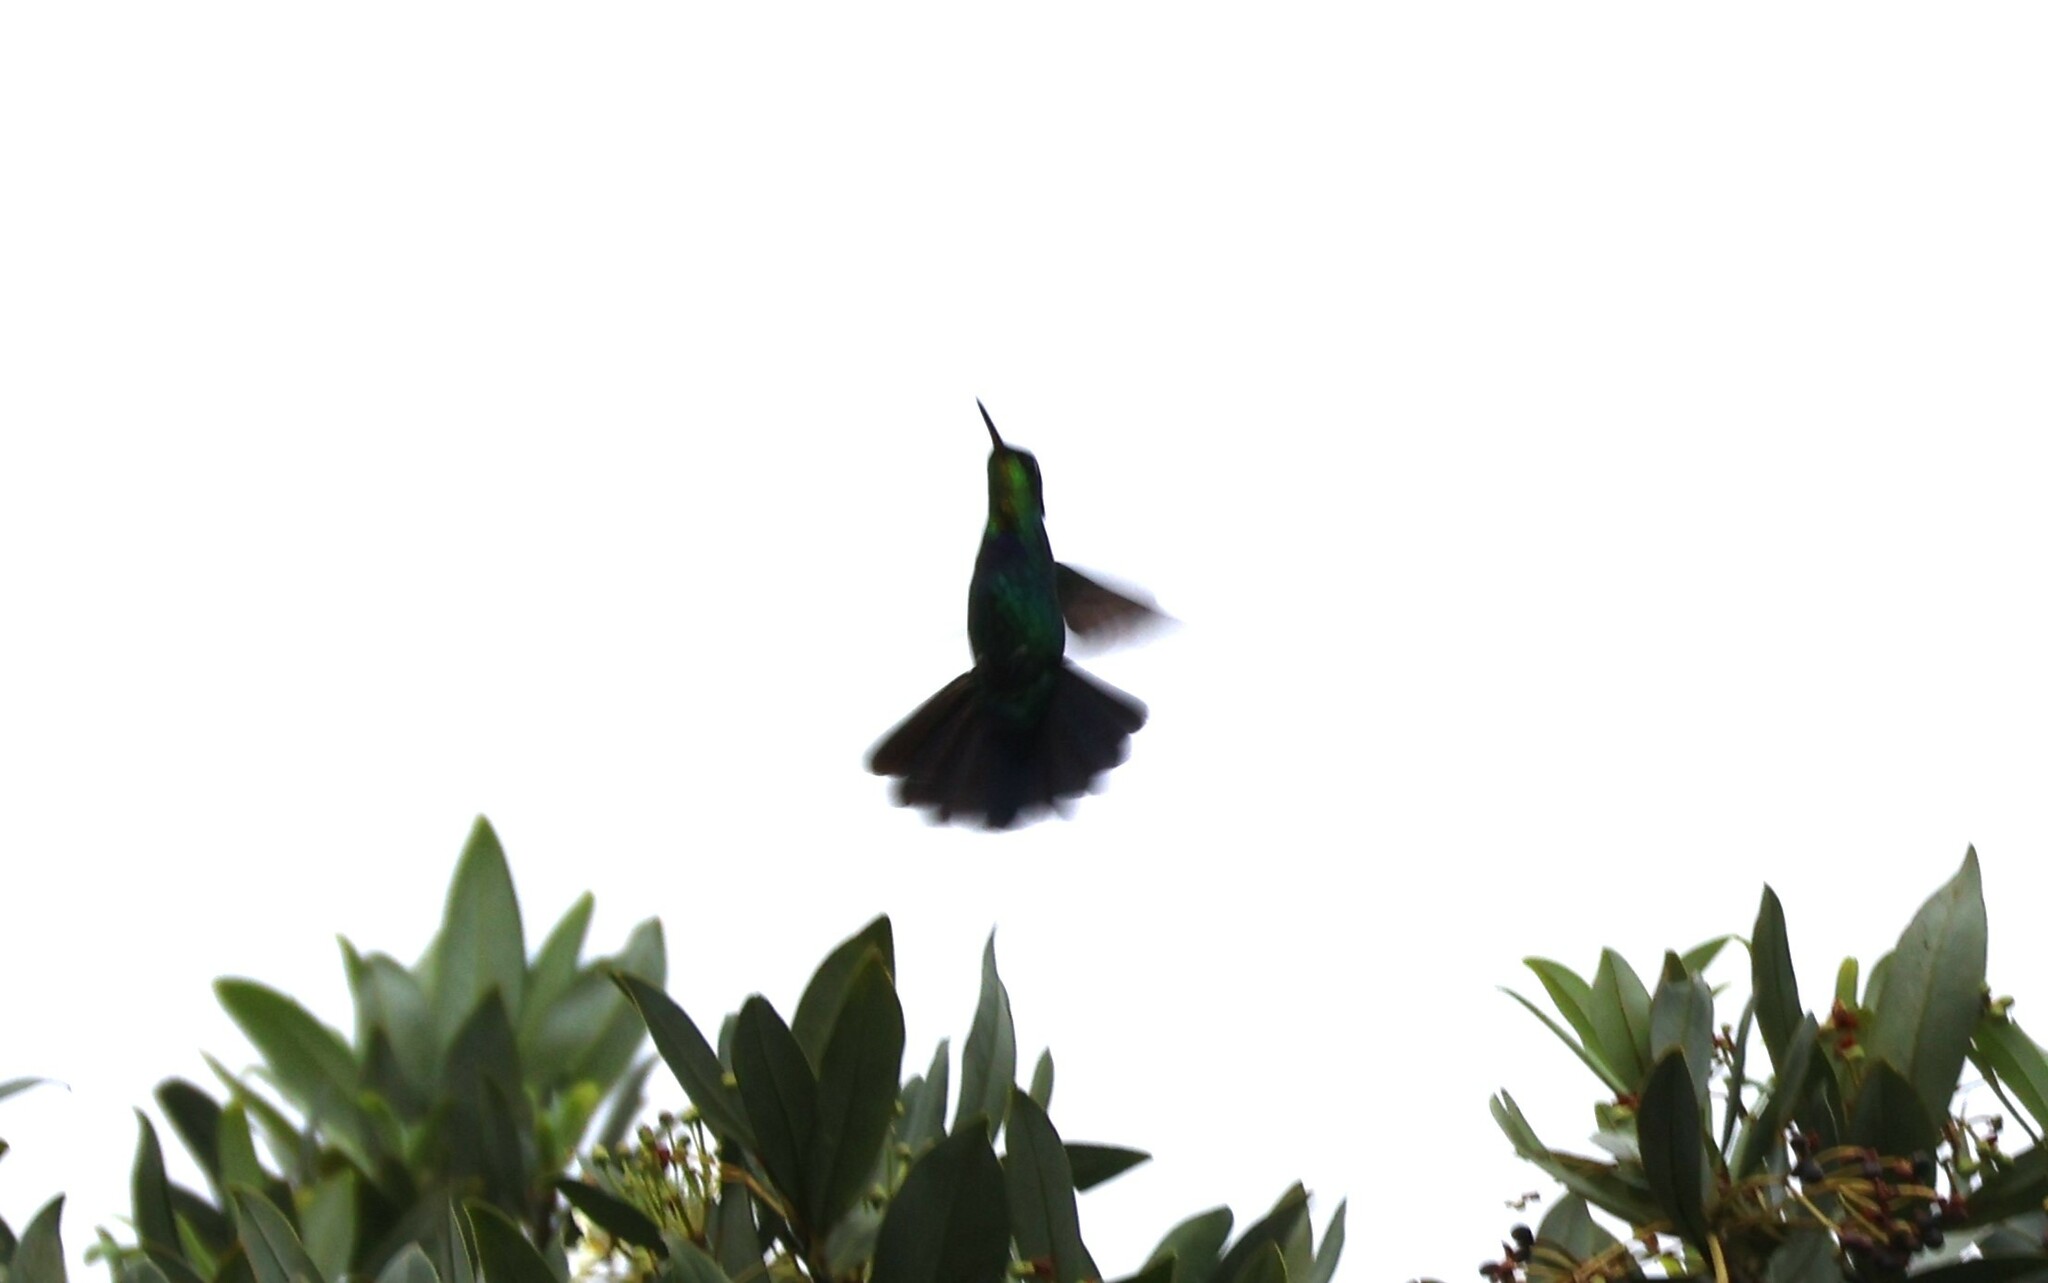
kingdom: Animalia
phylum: Chordata
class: Aves
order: Apodiformes
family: Trochilidae
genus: Panterpe
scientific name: Panterpe insignis
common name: Fiery-throated hummingbird
